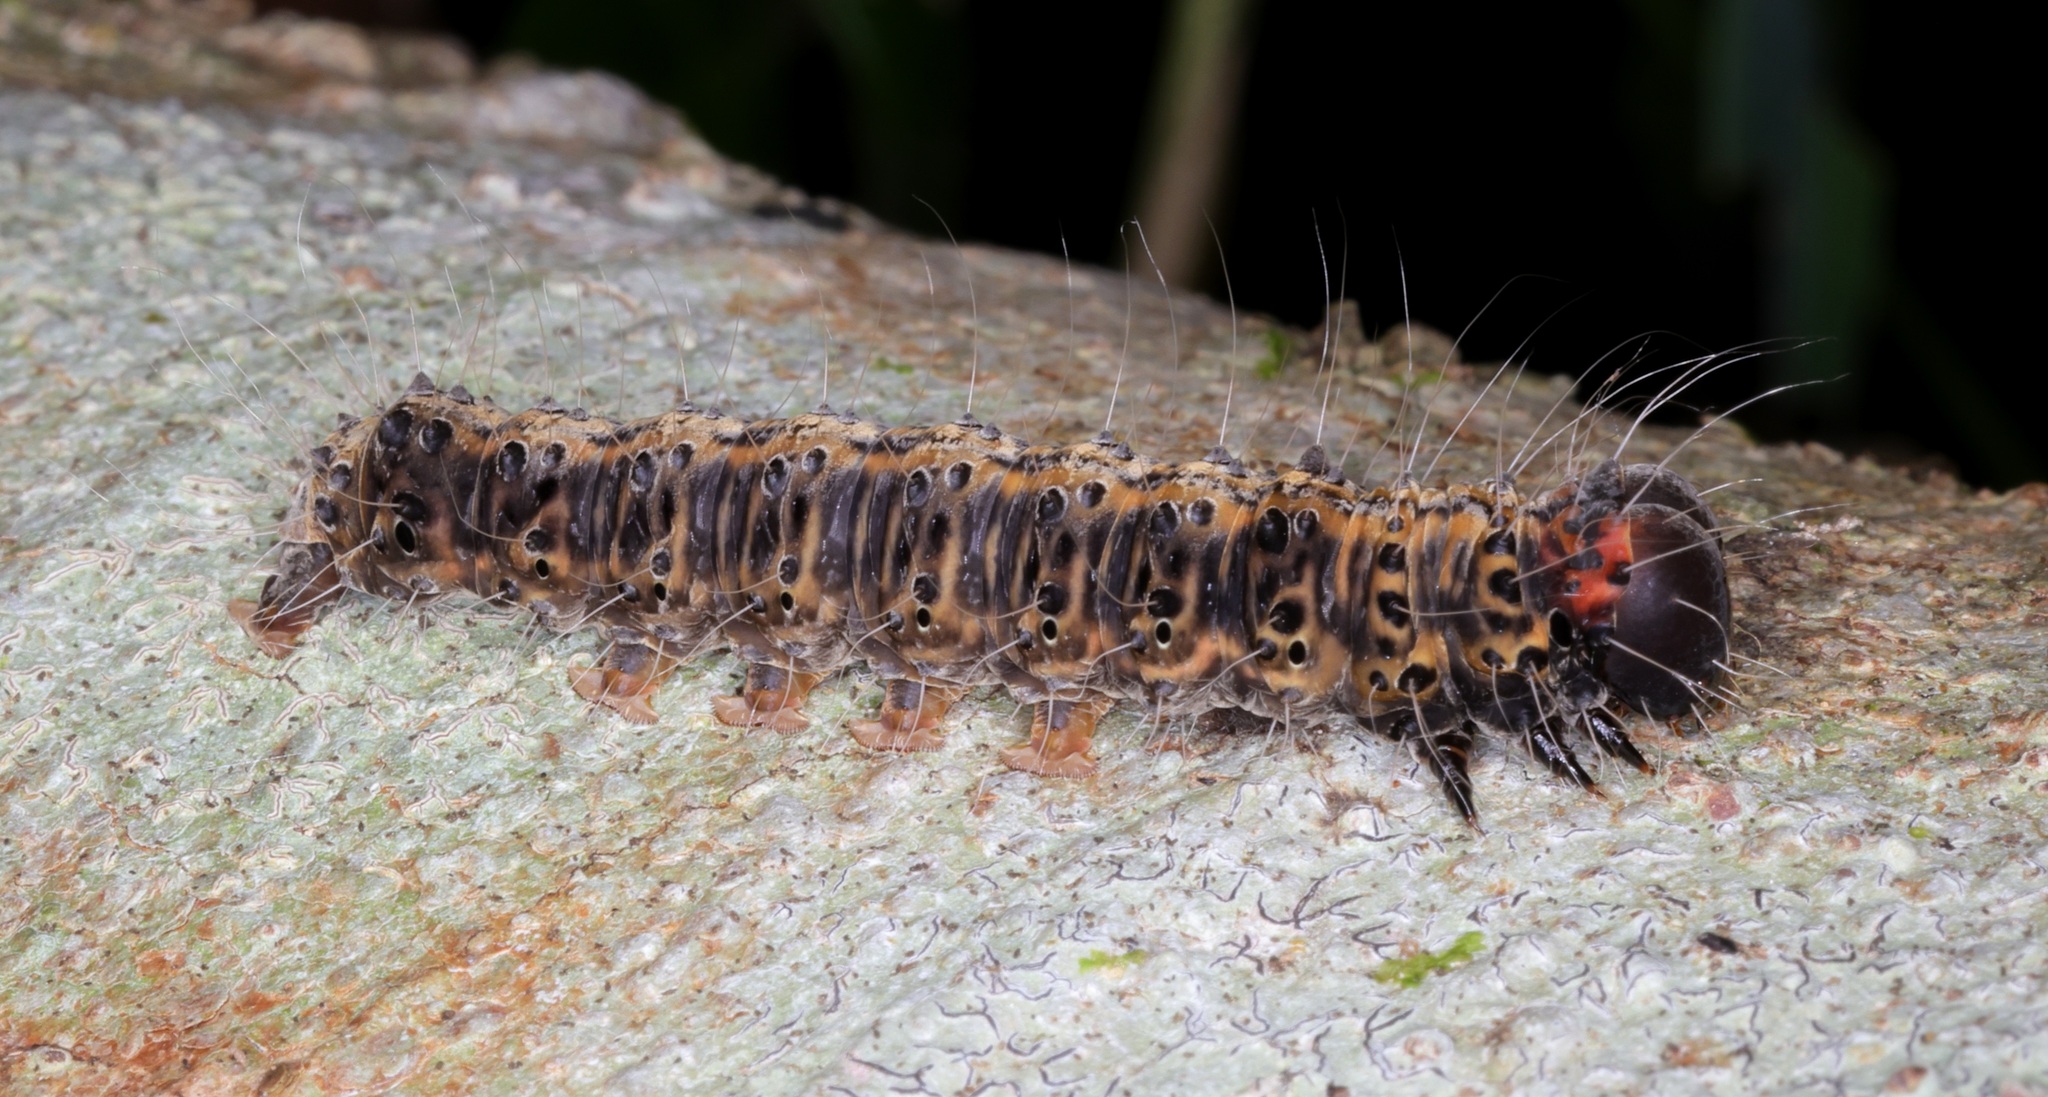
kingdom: Animalia
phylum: Arthropoda
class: Insecta
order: Lepidoptera
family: Erebidae
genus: Asota
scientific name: Asota plaginota
